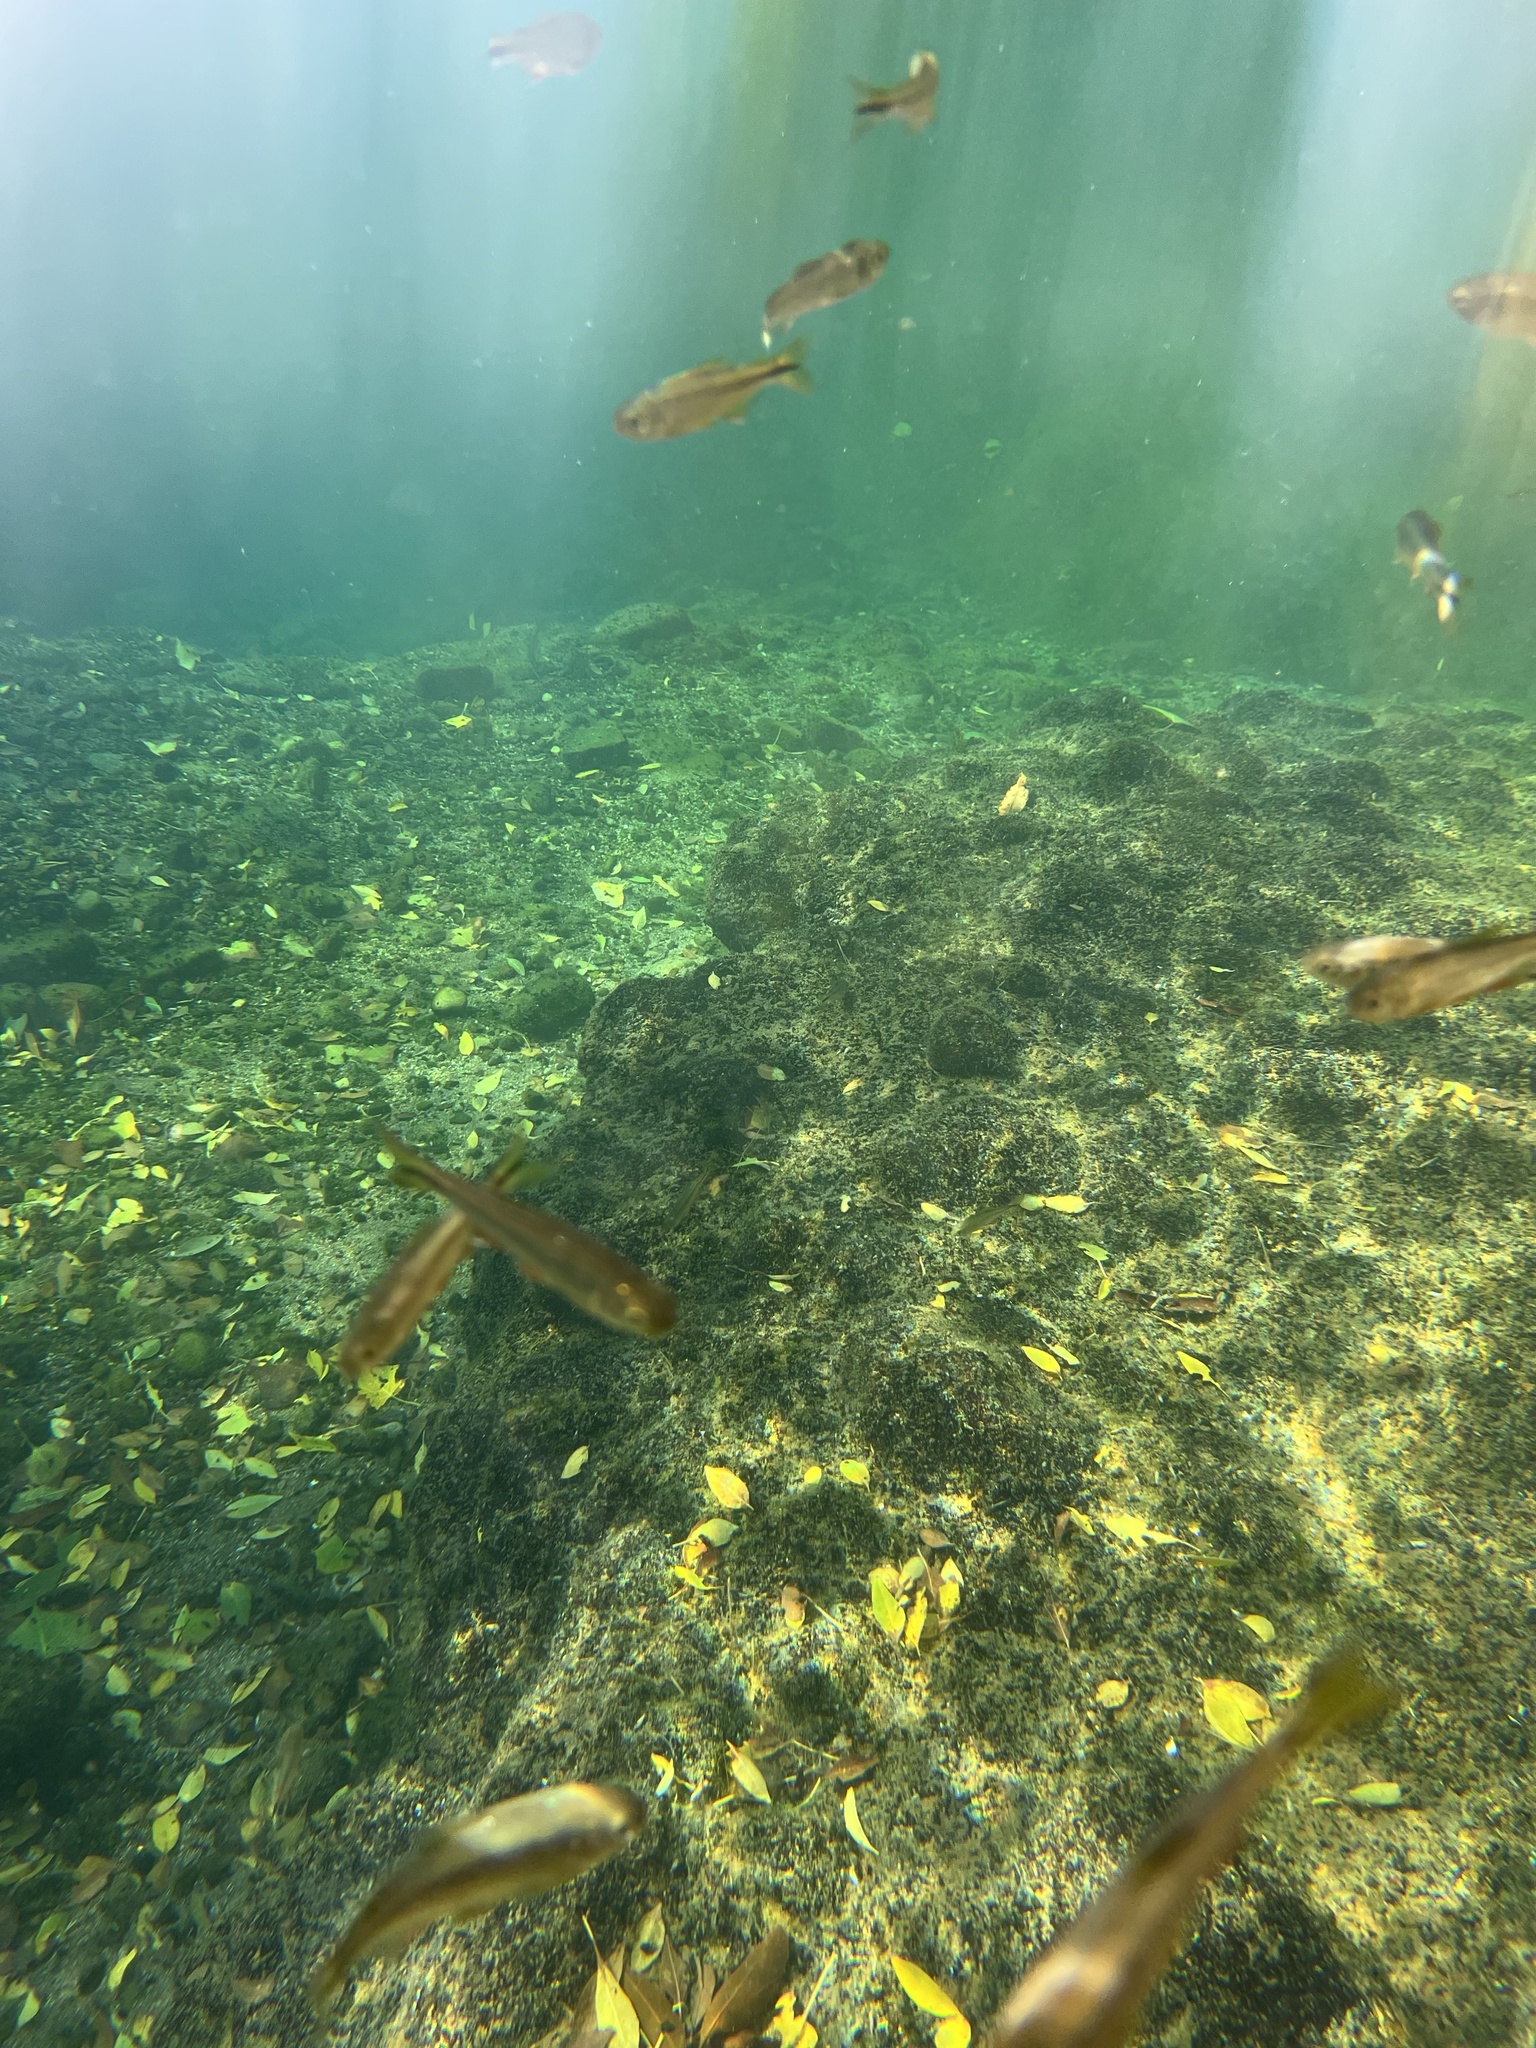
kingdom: Animalia
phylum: Chordata
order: Characiformes
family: Characidae
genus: Astyanax
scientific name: Astyanax mexicanus
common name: Mexican tetra
